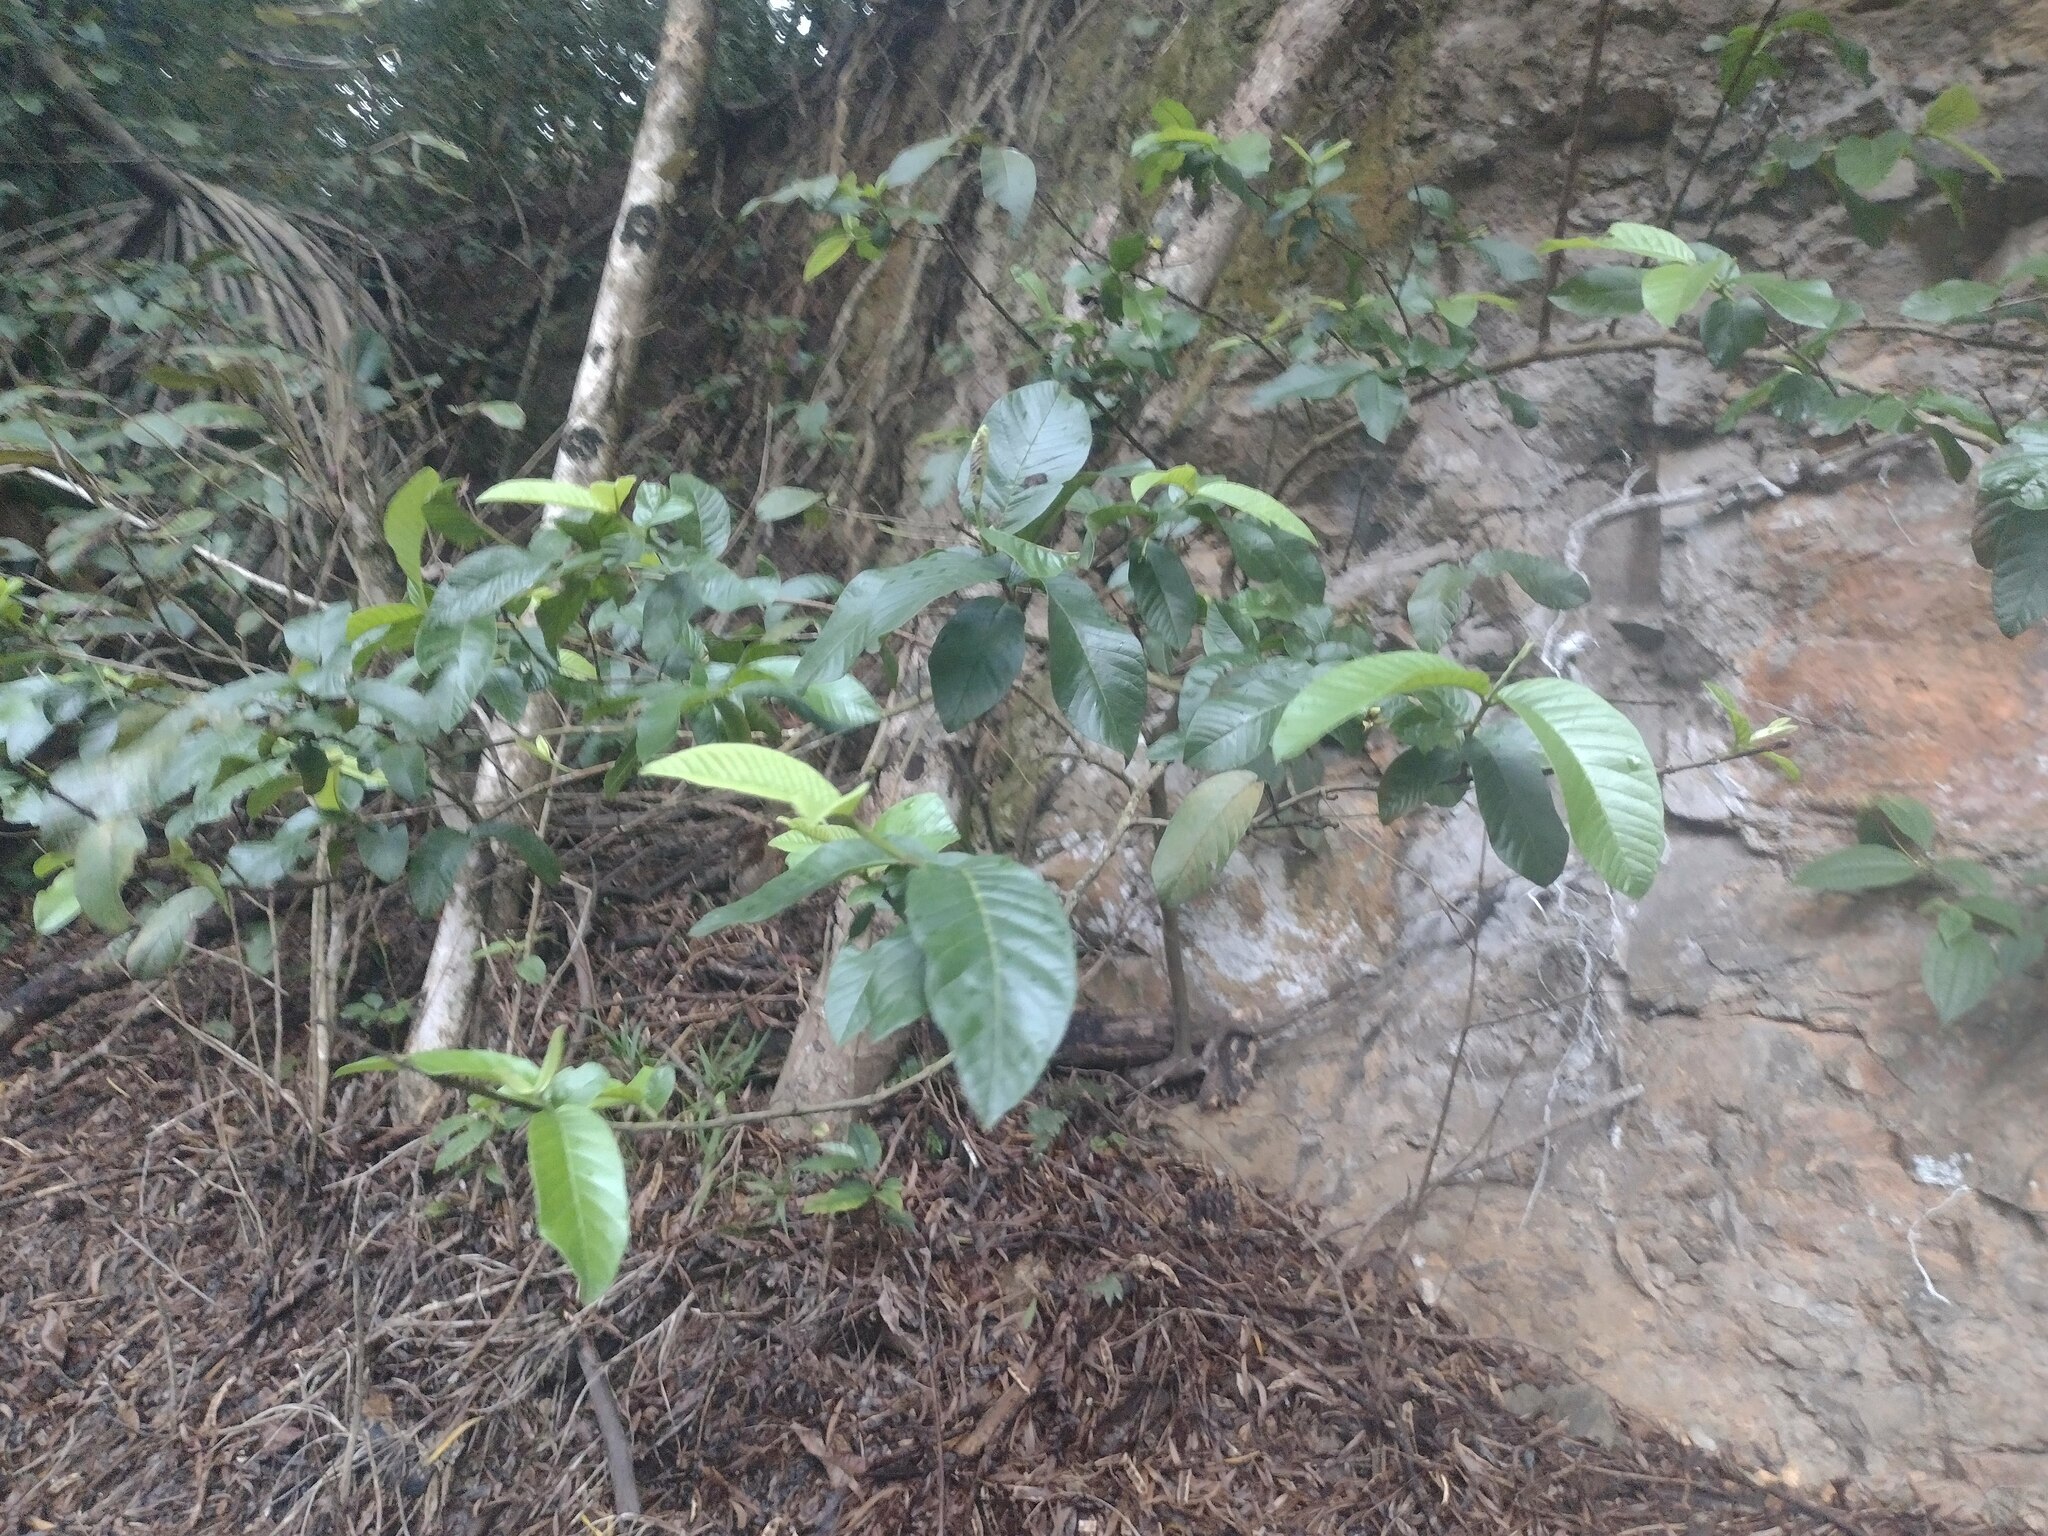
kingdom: Plantae
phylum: Tracheophyta
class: Magnoliopsida
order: Myrtales
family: Myrtaceae
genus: Psidium
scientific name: Psidium guajava
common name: Guava
